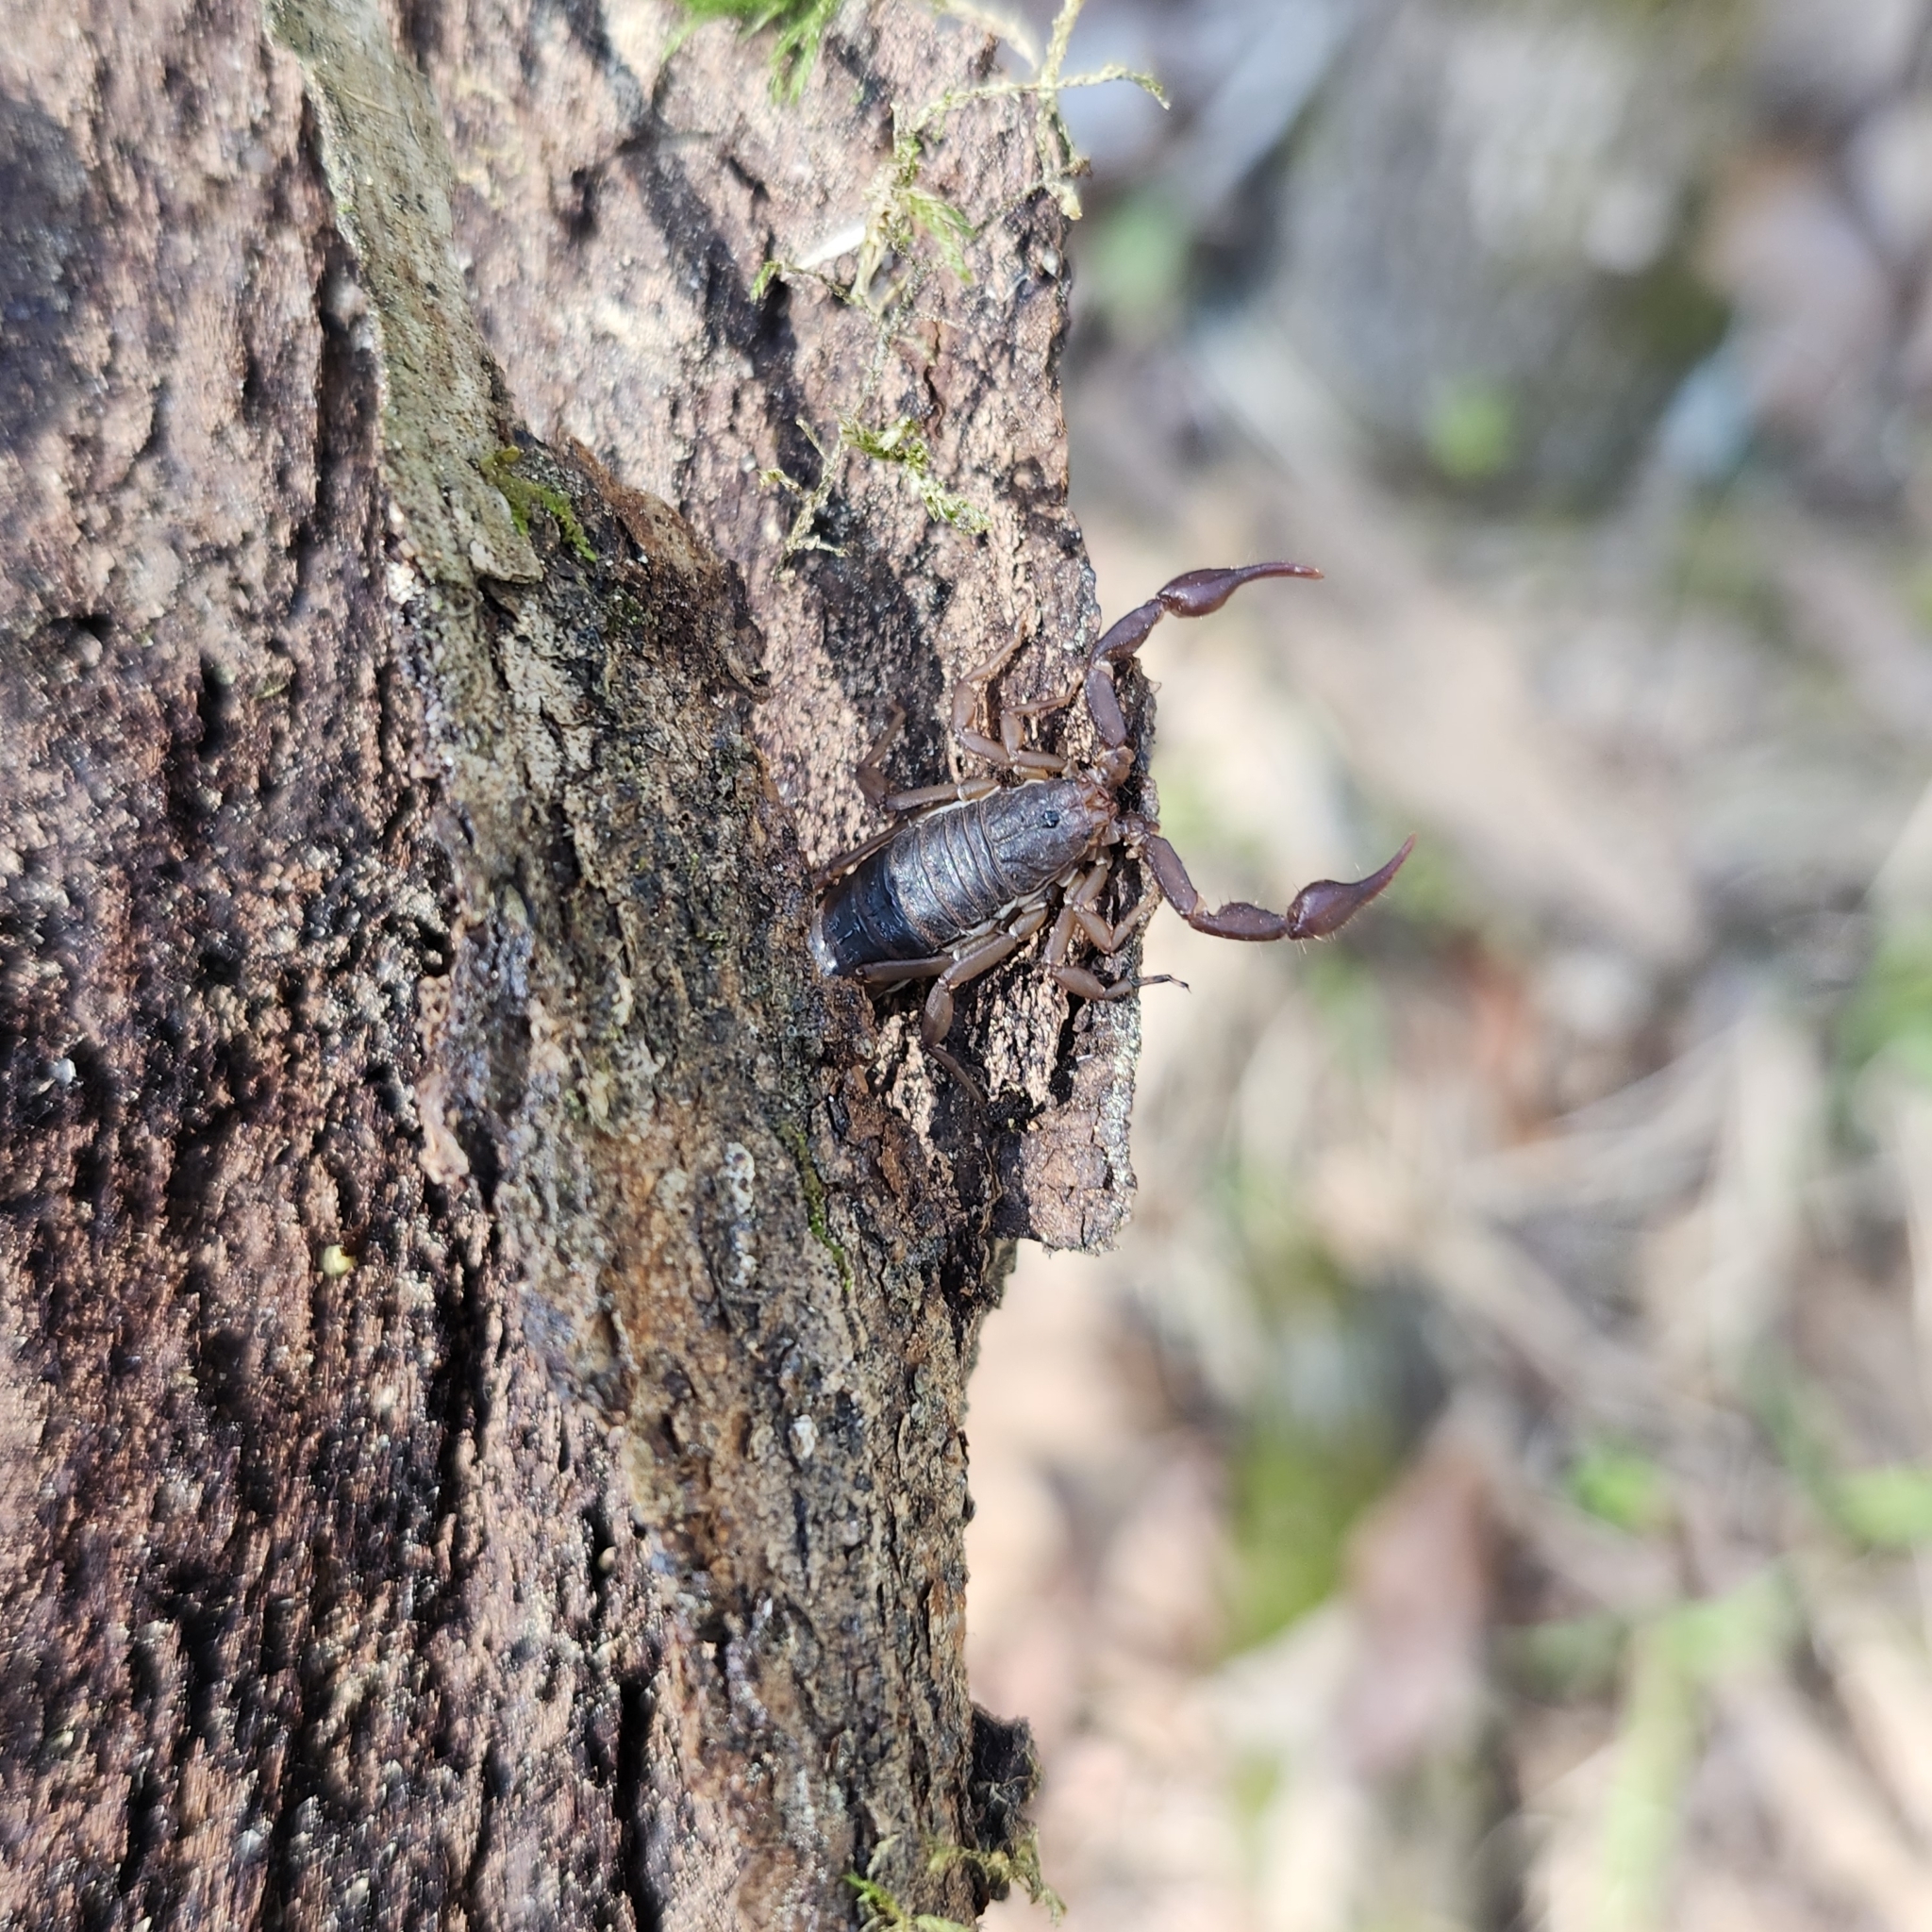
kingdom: Animalia
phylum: Arthropoda
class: Arachnida
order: Scorpiones
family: Vaejovidae
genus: Vaejovis
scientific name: Vaejovis carolinianus
